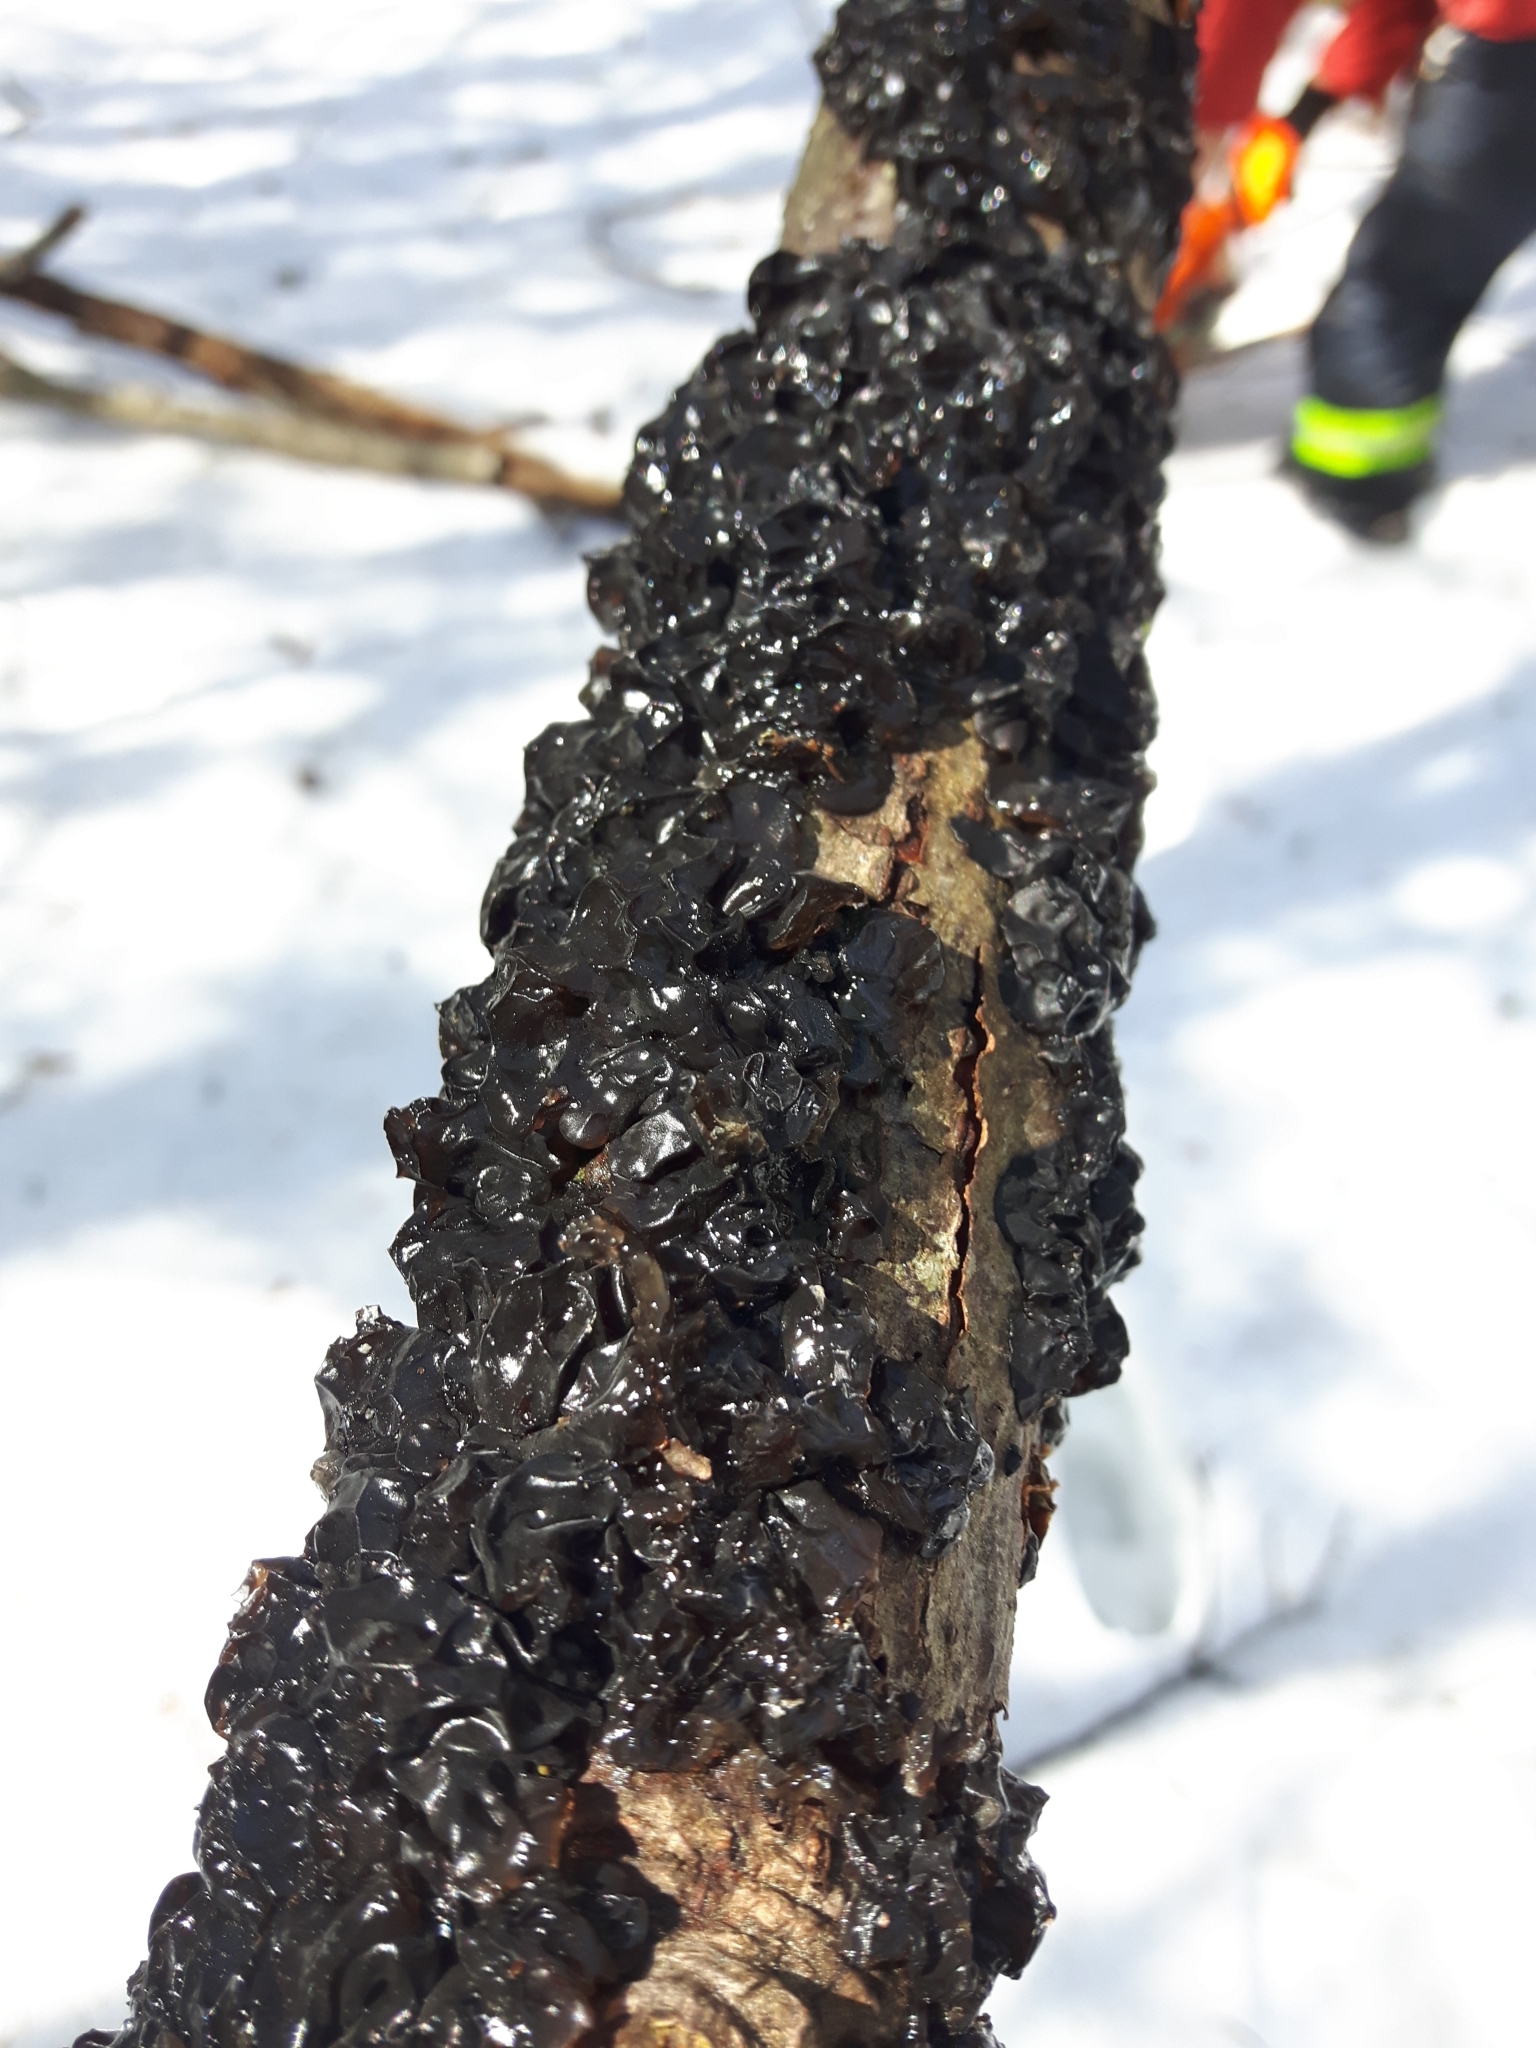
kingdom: Fungi
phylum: Basidiomycota
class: Agaricomycetes
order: Auriculariales
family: Auriculariaceae
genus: Exidia
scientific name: Exidia glandulosa
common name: Witches' butter
